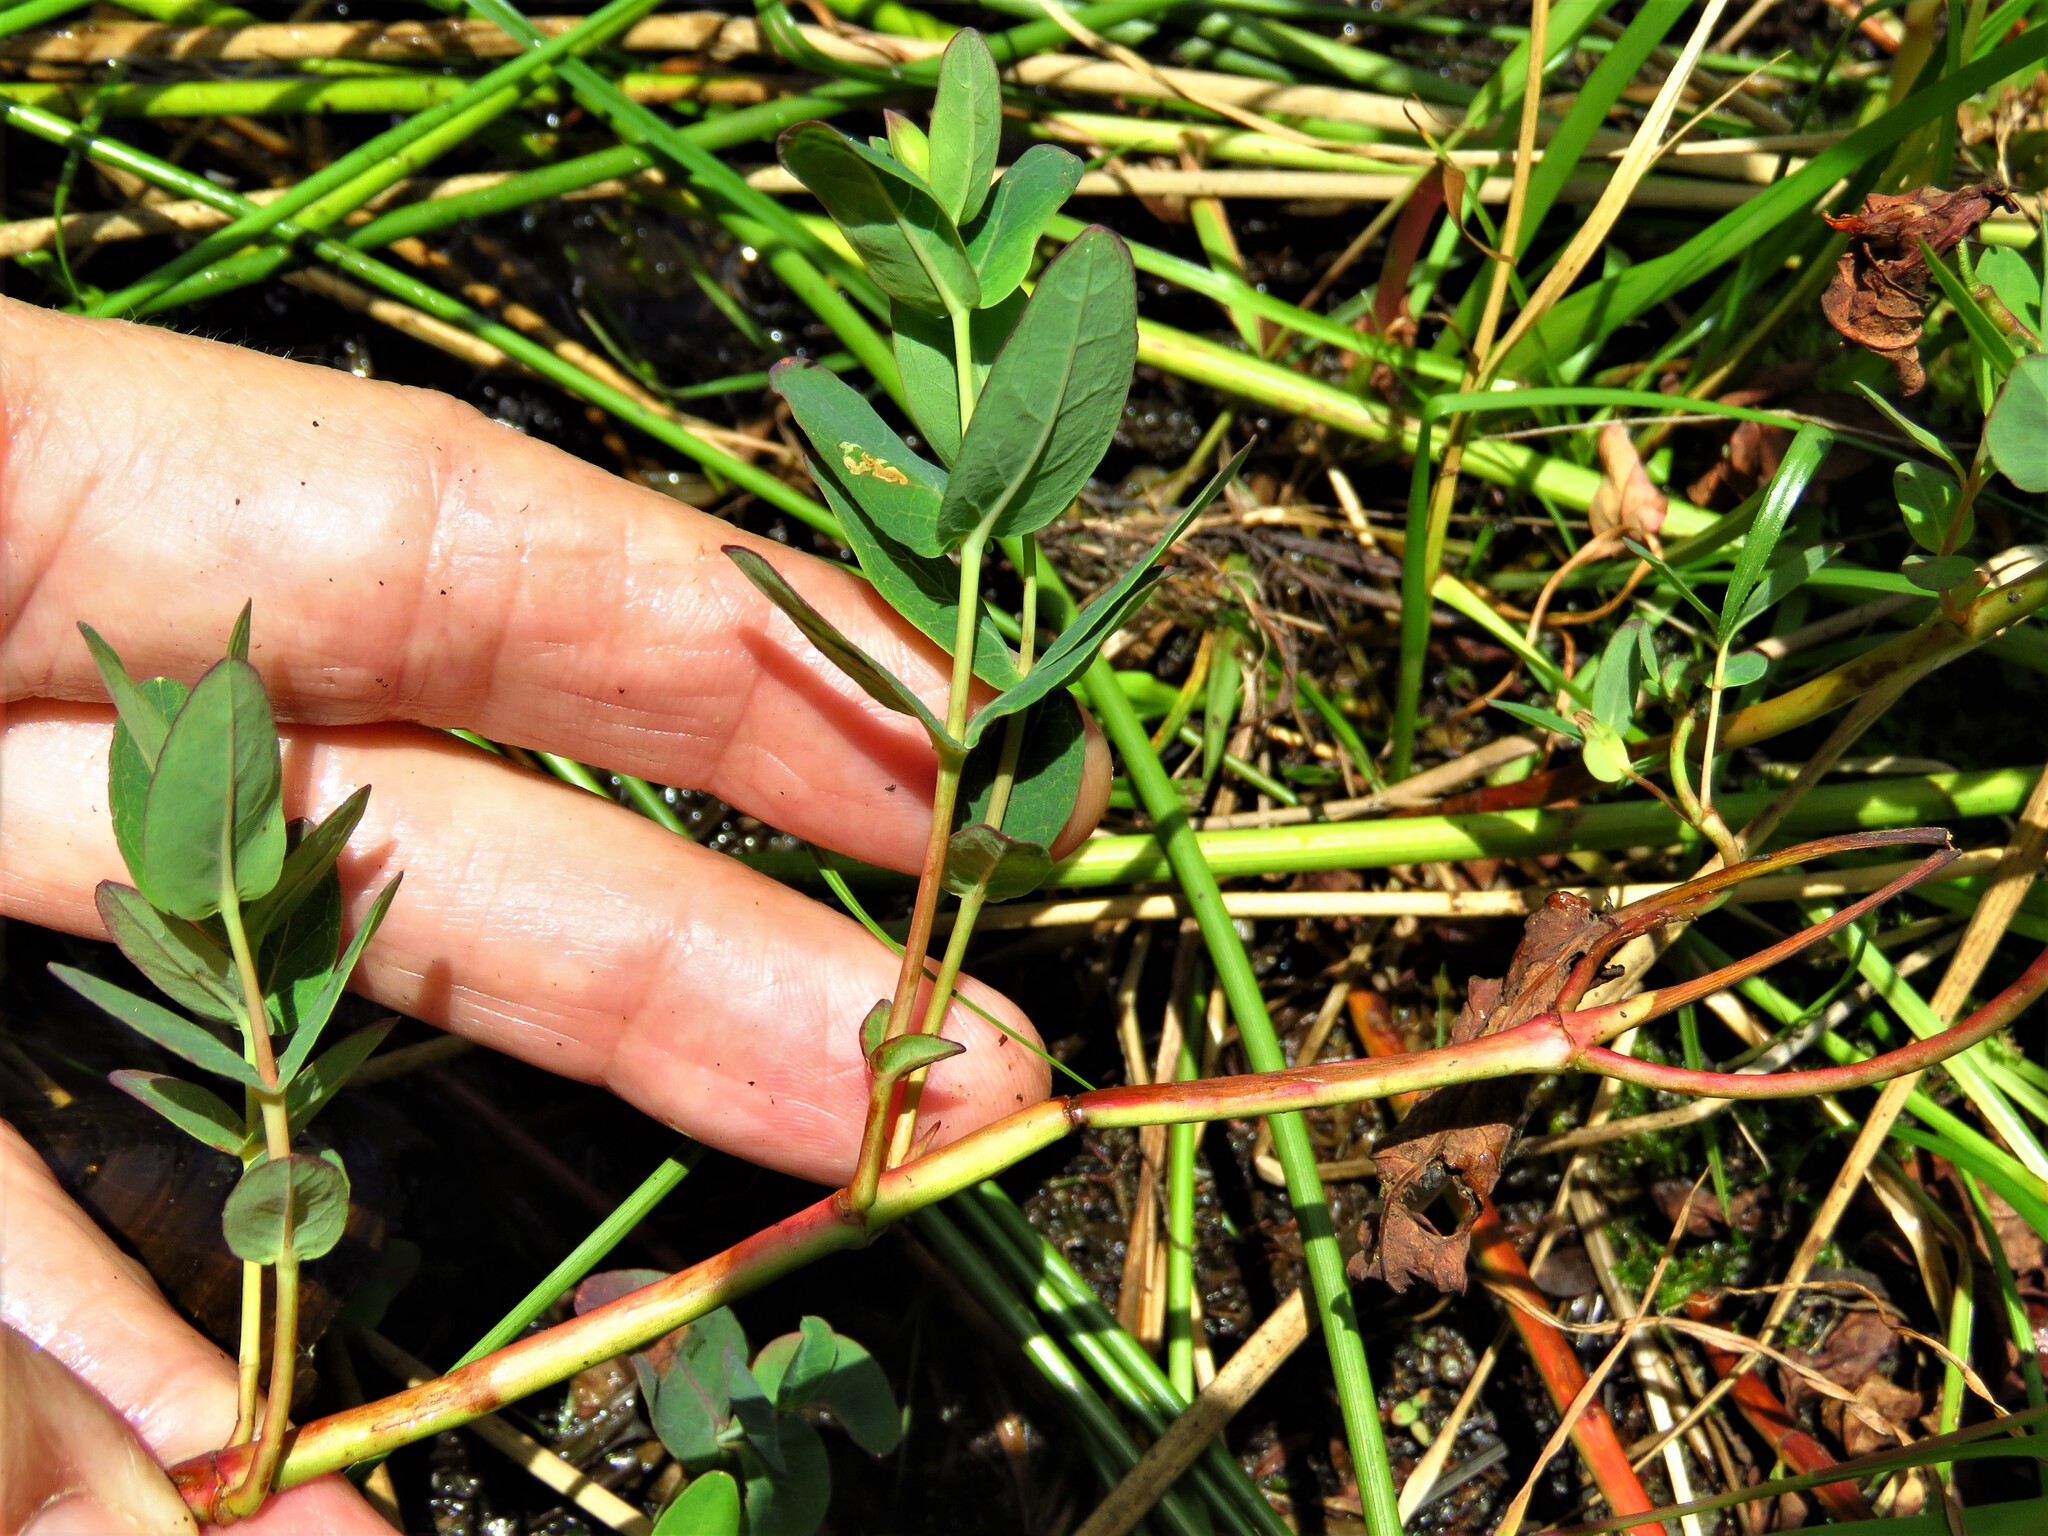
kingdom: Plantae
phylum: Tracheophyta
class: Magnoliopsida
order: Malpighiales
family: Hypericaceae
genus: Triadenum
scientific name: Triadenum virginicum
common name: Marsh st. john's-wort
